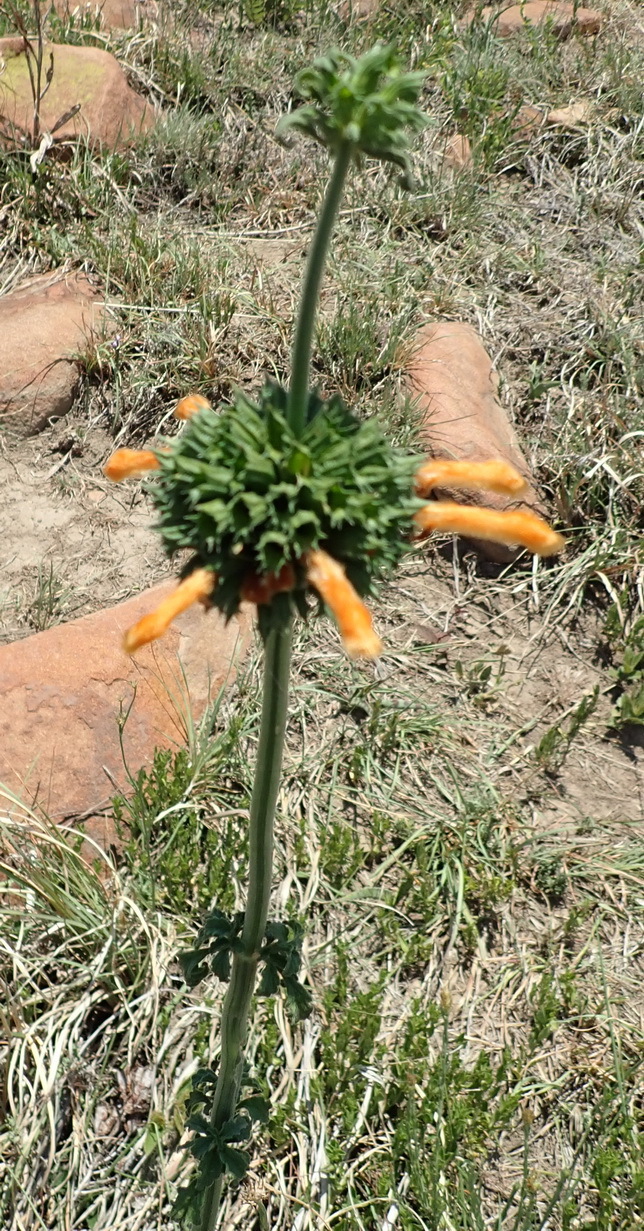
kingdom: Plantae
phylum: Tracheophyta
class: Magnoliopsida
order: Lamiales
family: Lamiaceae
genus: Leonotis
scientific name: Leonotis ocymifolia
